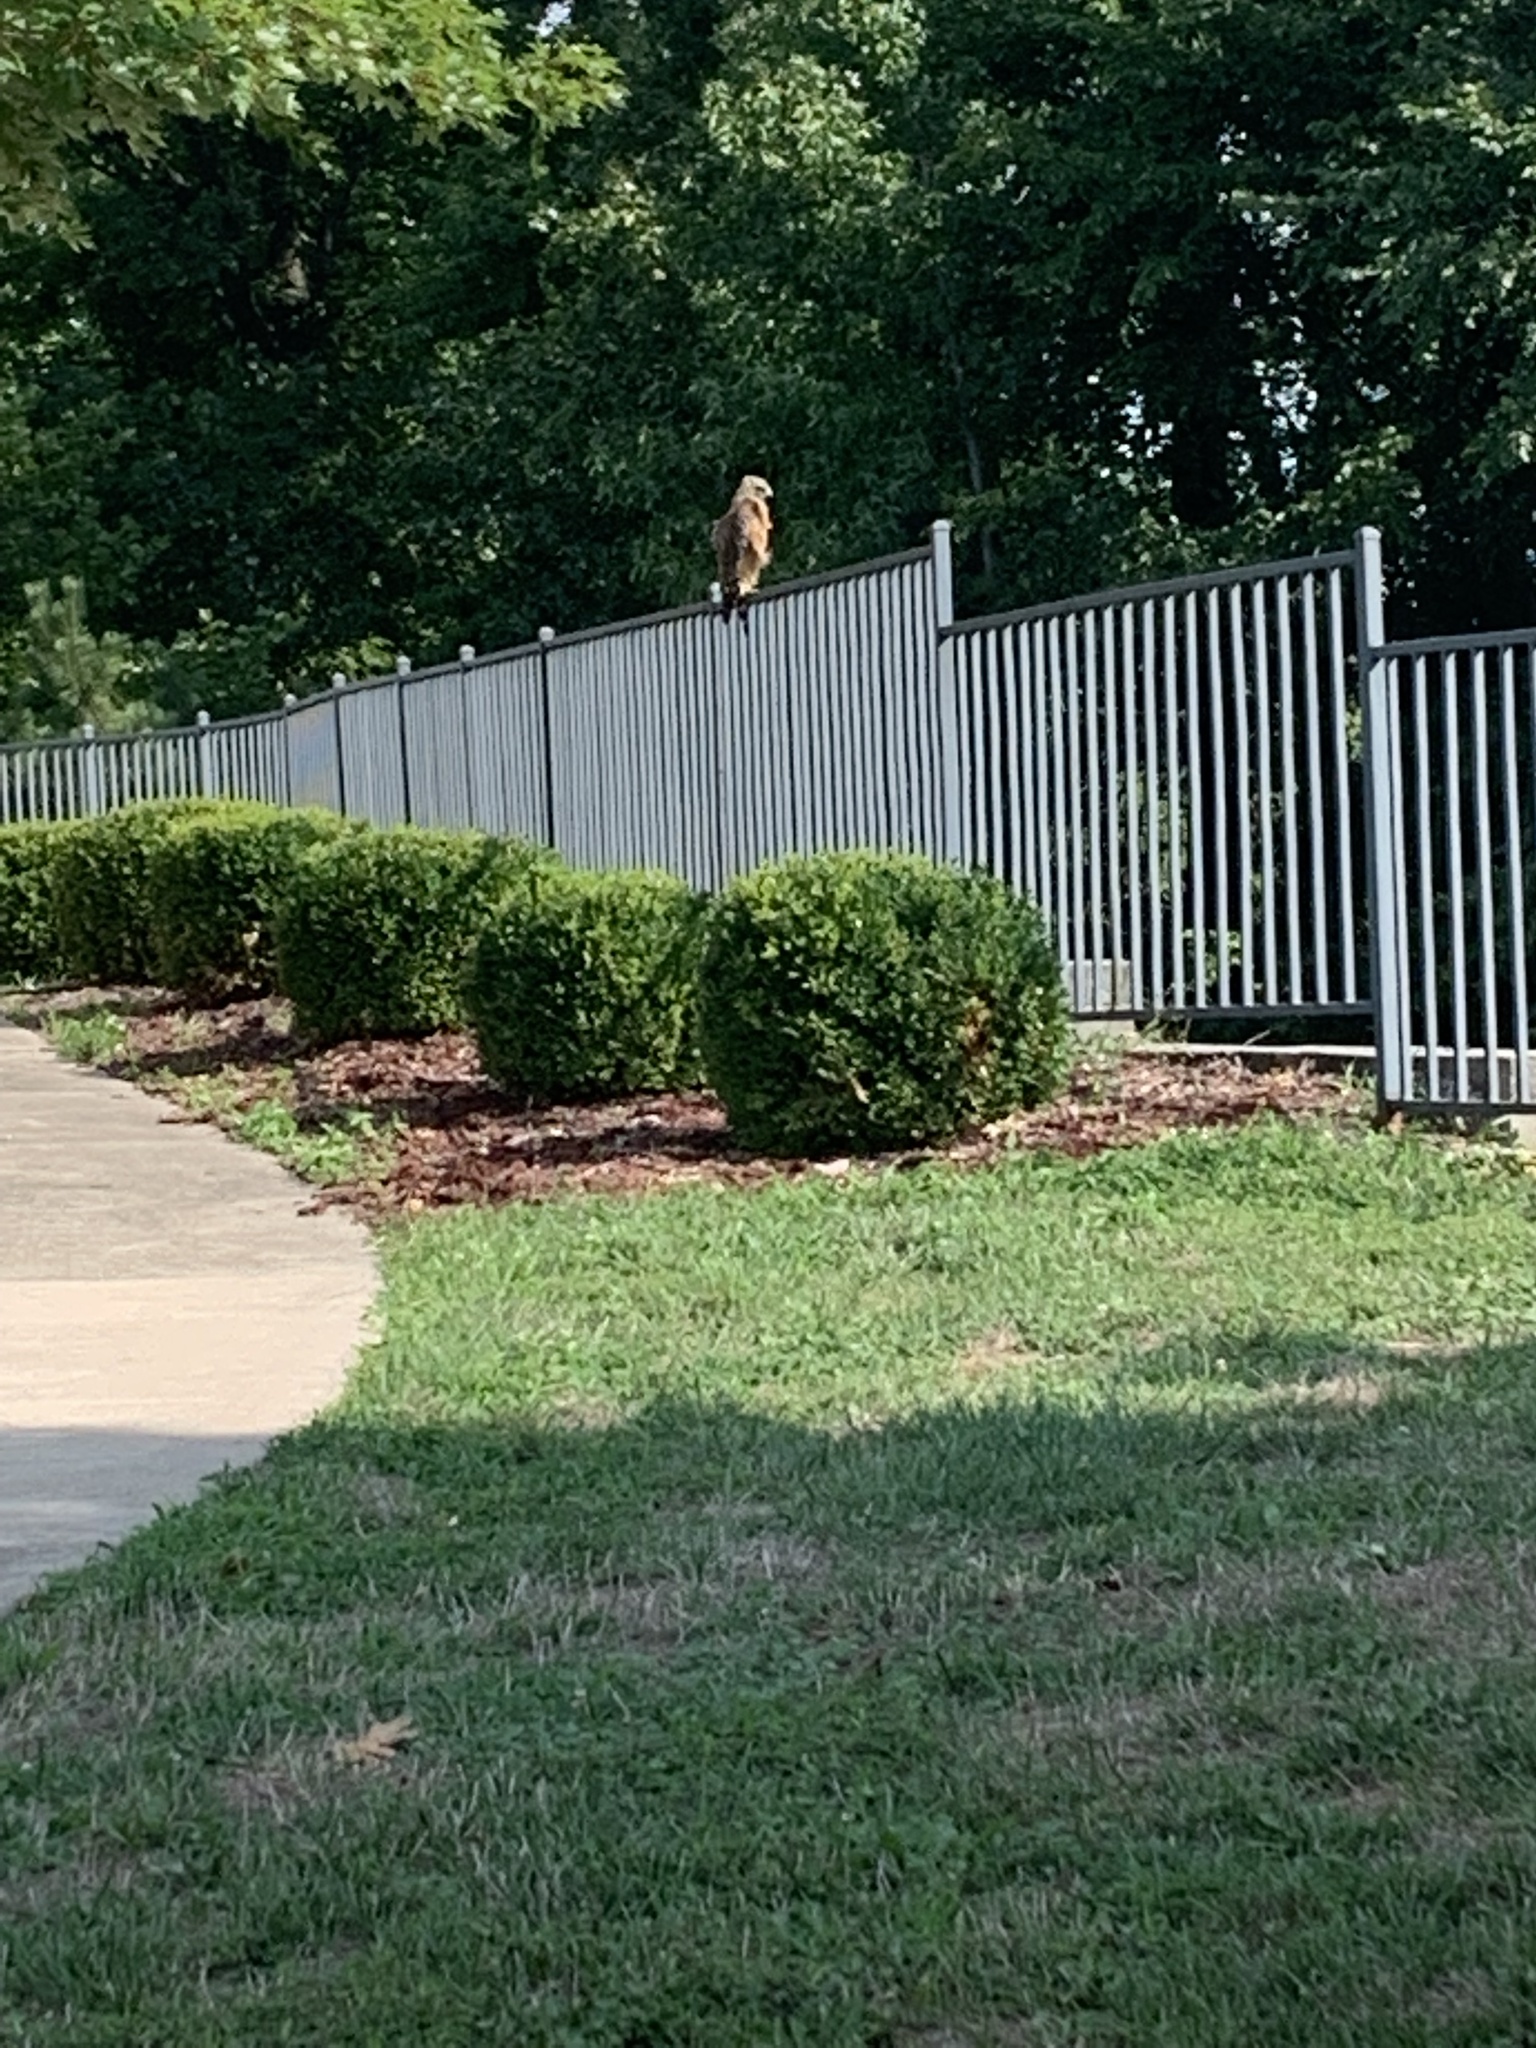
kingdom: Animalia
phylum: Chordata
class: Aves
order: Accipitriformes
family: Accipitridae
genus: Buteo
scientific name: Buteo lineatus
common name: Red-shouldered hawk
